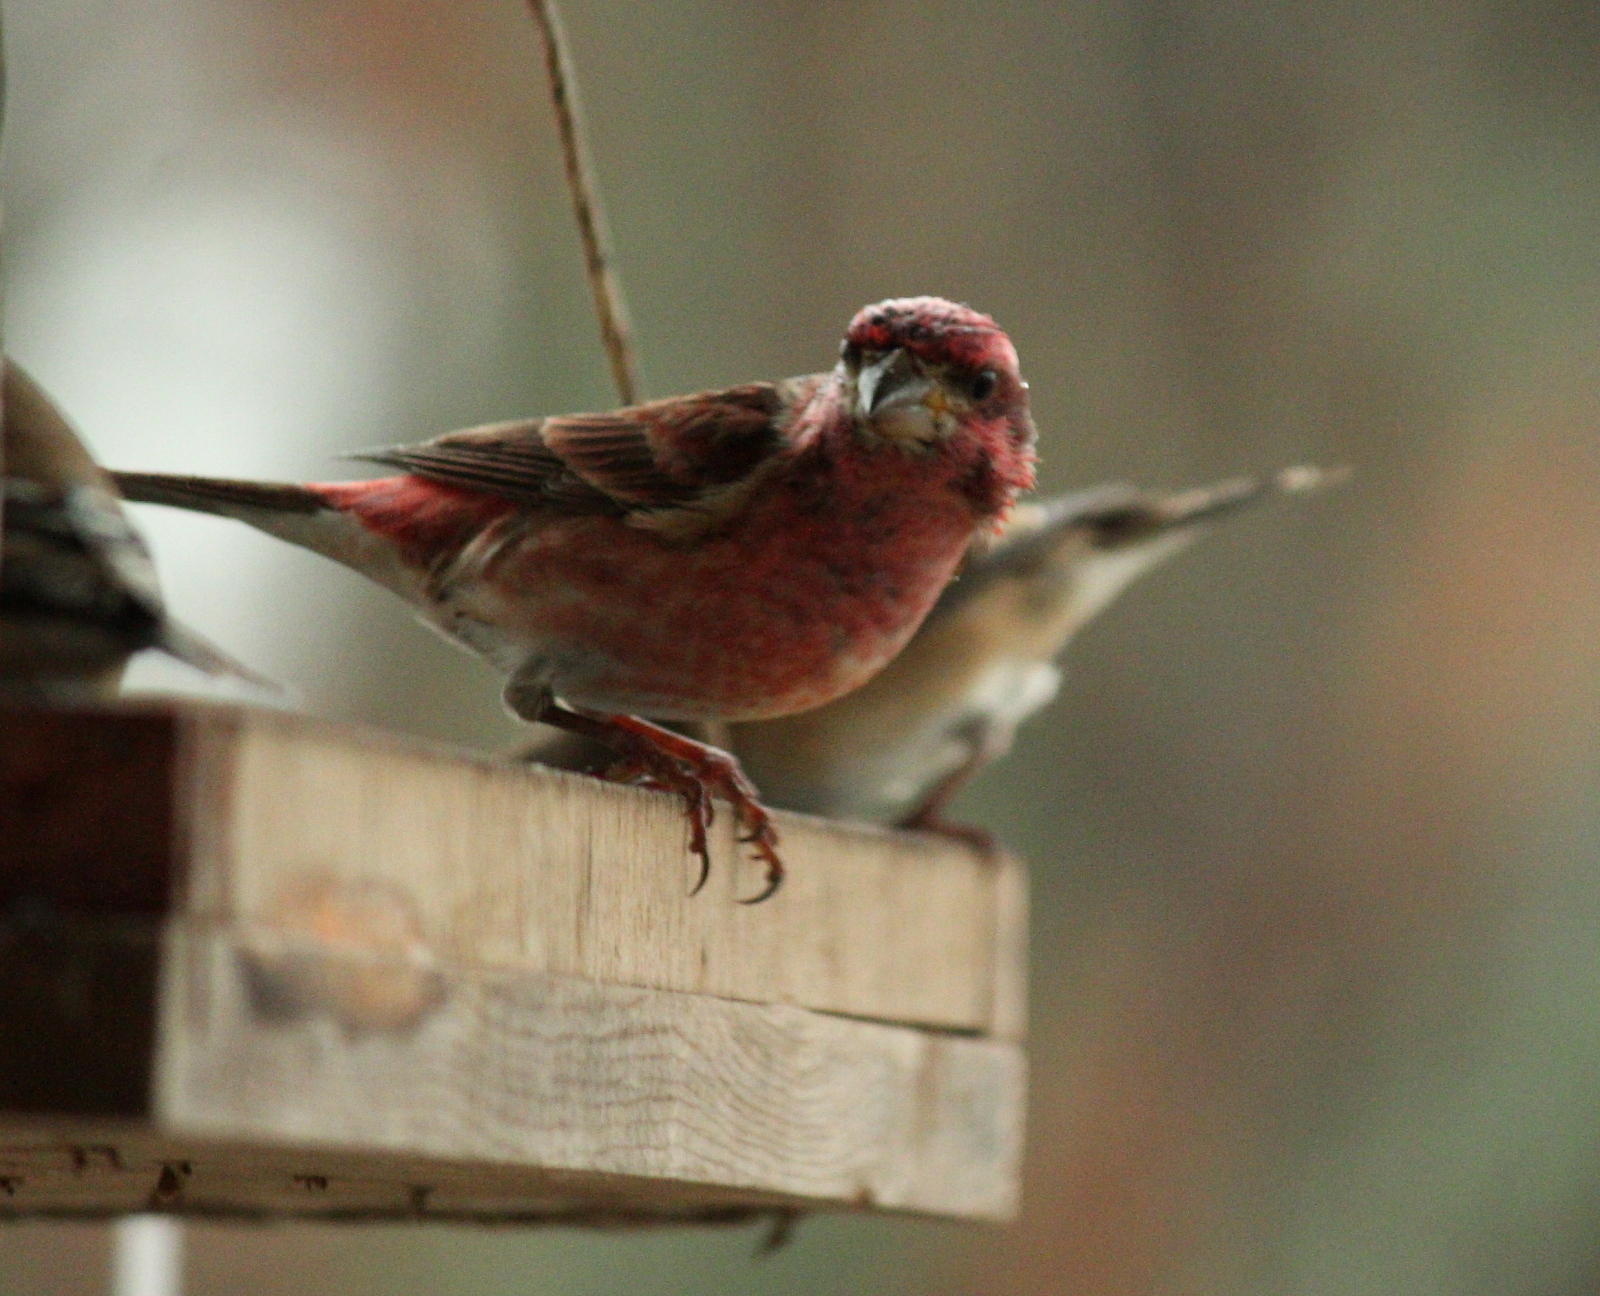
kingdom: Animalia
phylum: Chordata
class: Aves
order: Passeriformes
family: Fringillidae
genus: Haemorhous
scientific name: Haemorhous purpureus
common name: Purple finch
